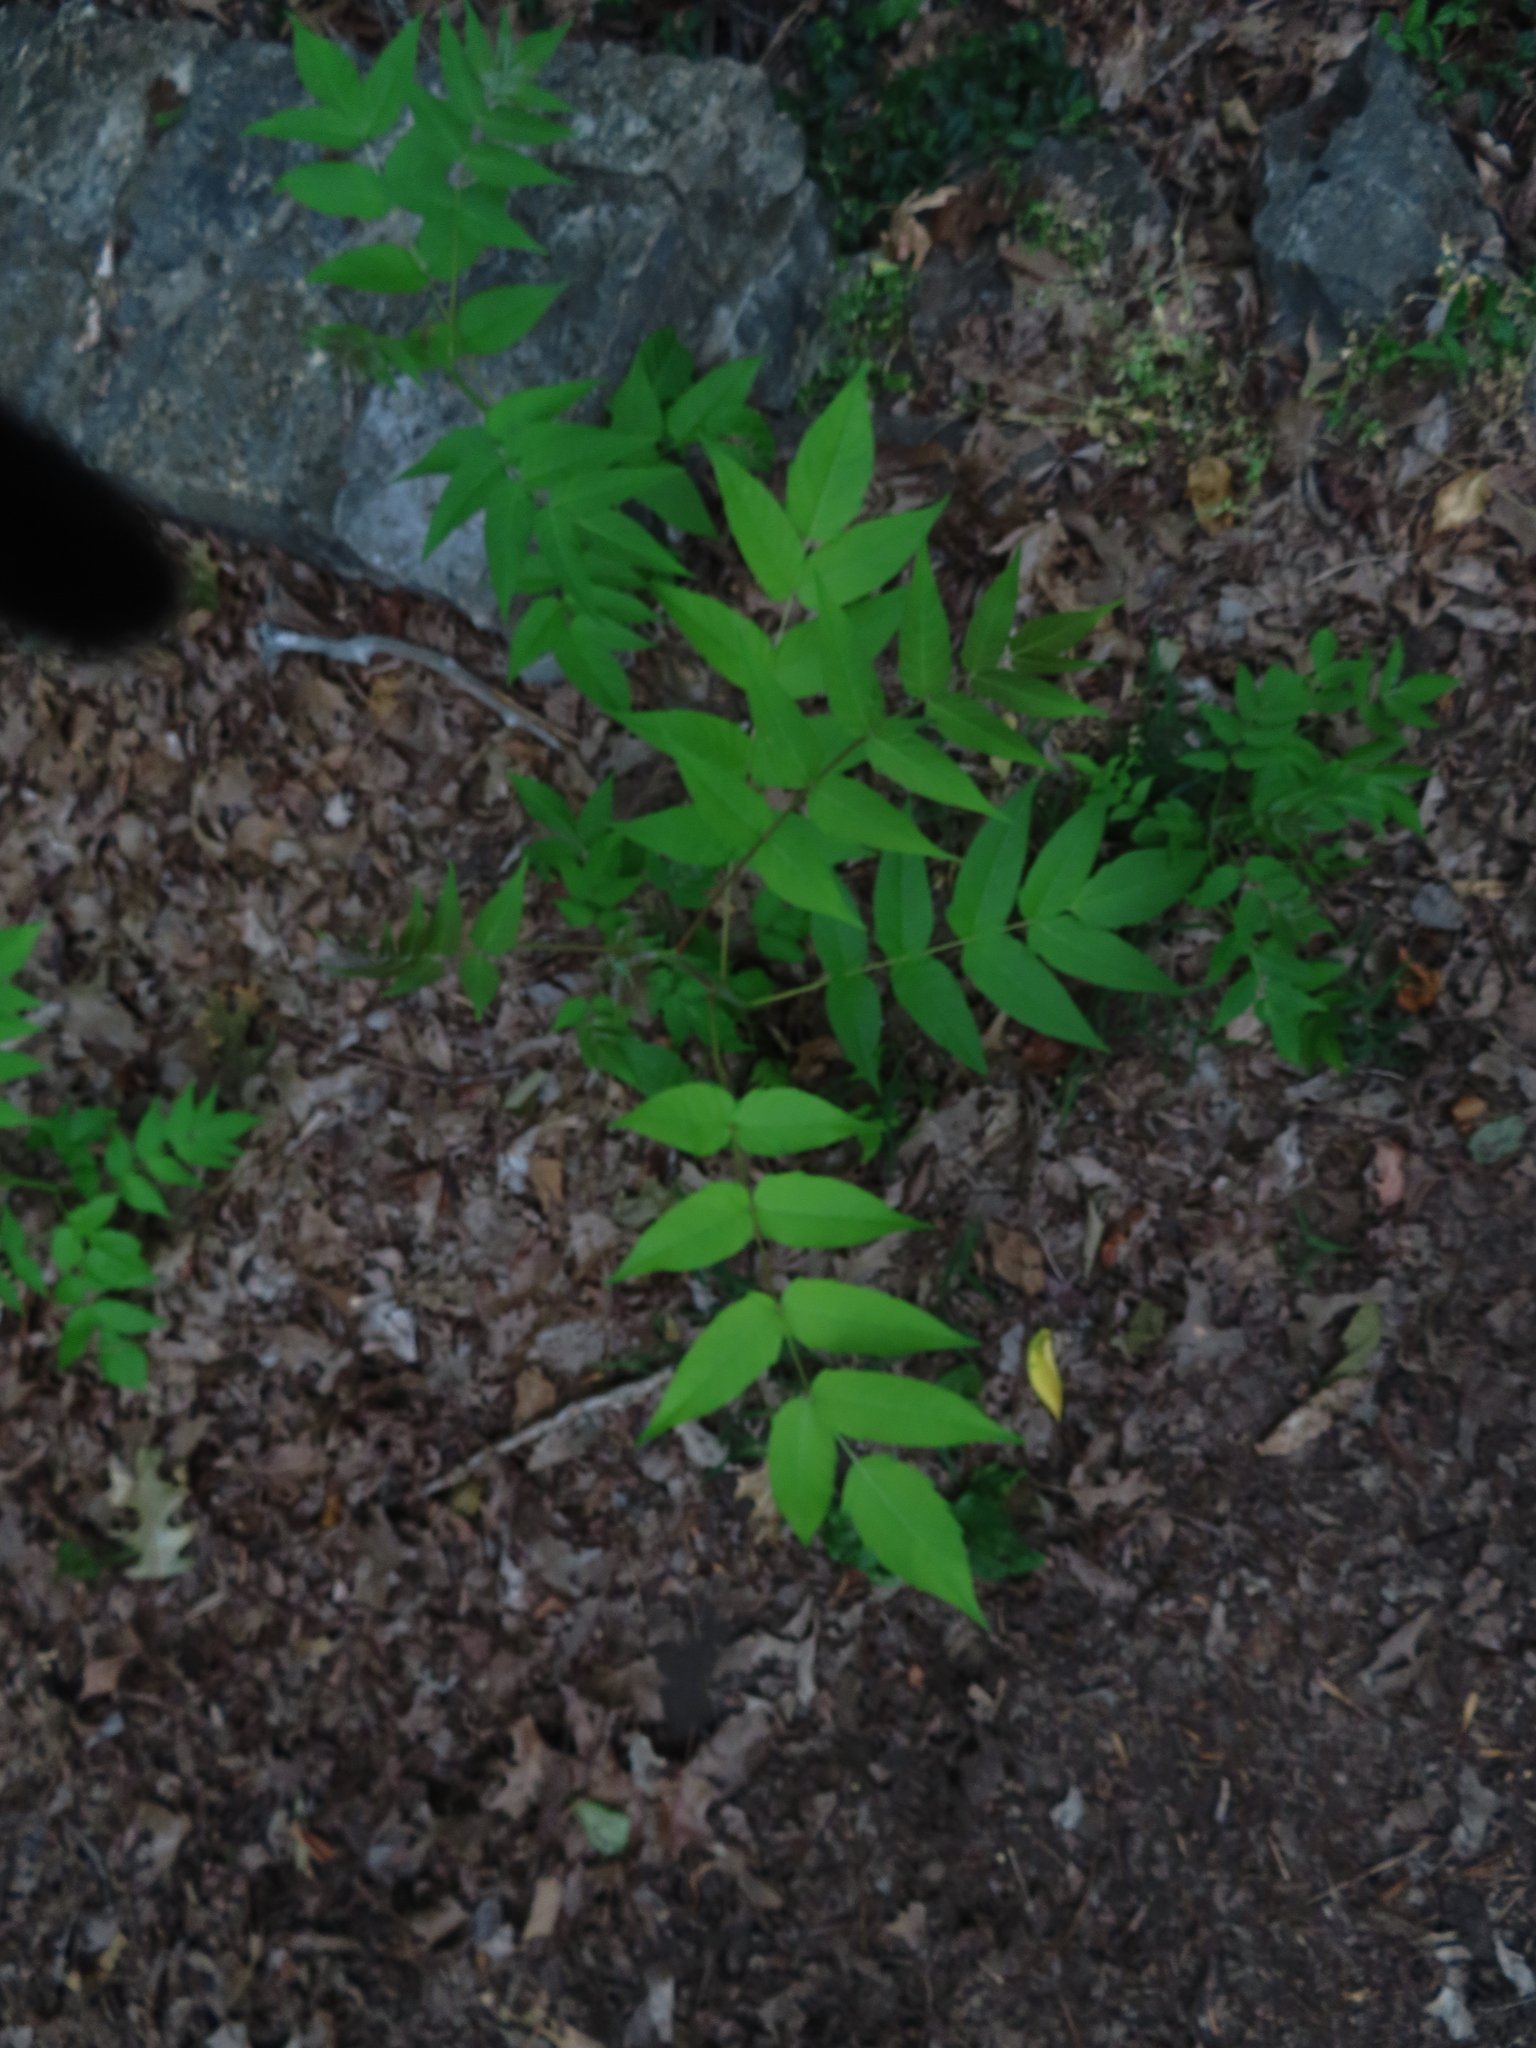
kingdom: Plantae
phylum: Tracheophyta
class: Magnoliopsida
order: Sapindales
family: Simaroubaceae
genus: Ailanthus
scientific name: Ailanthus altissima
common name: Tree-of-heaven
